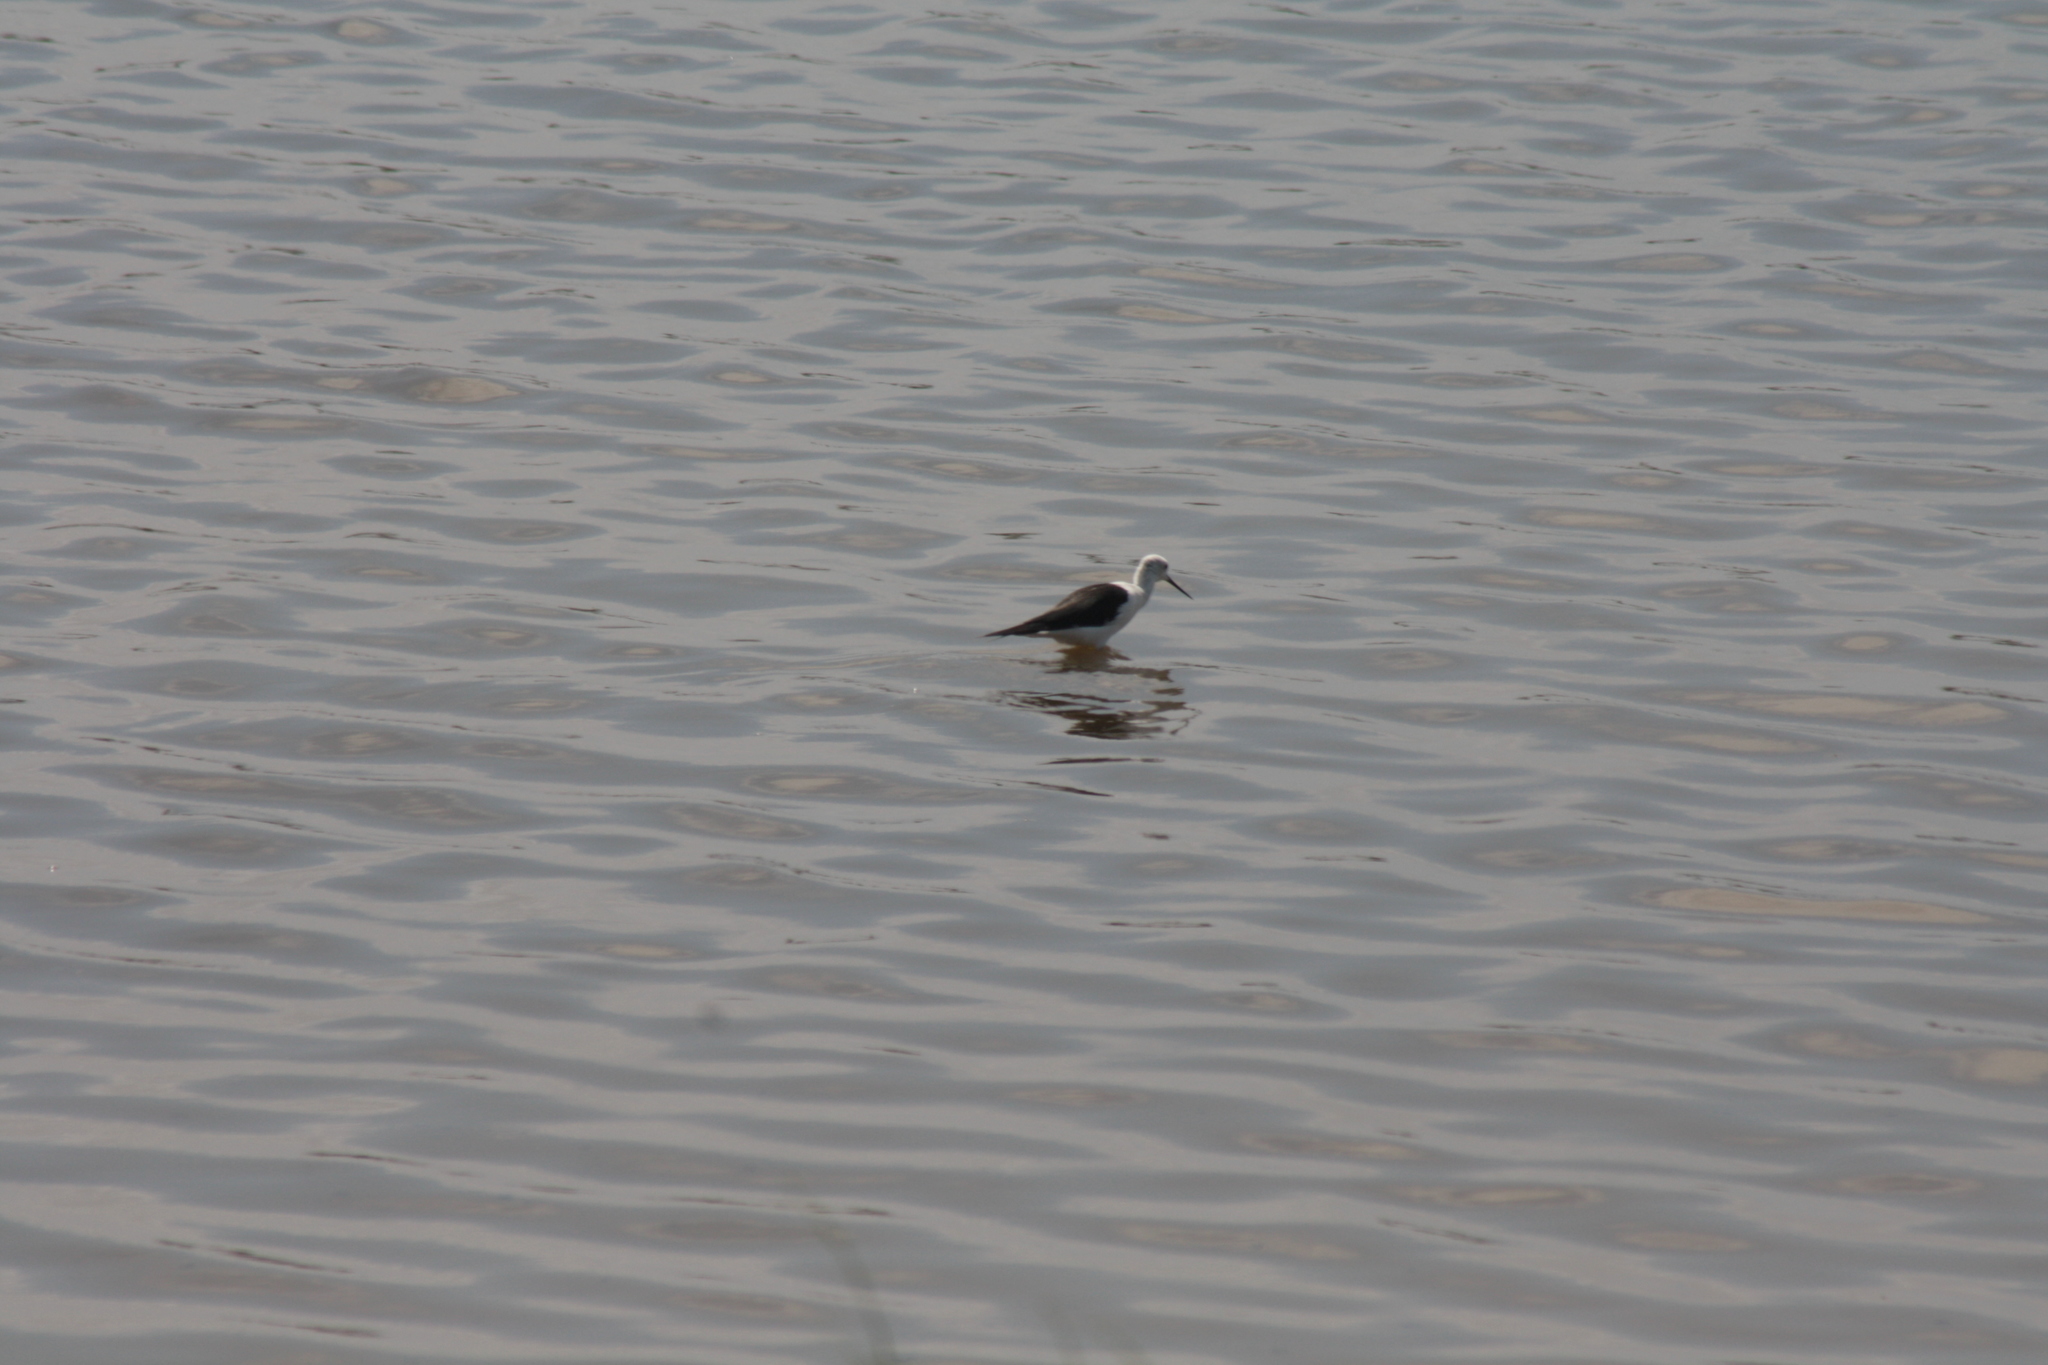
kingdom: Animalia
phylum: Chordata
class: Aves
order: Charadriiformes
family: Recurvirostridae
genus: Himantopus
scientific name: Himantopus himantopus
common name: Black-winged stilt
